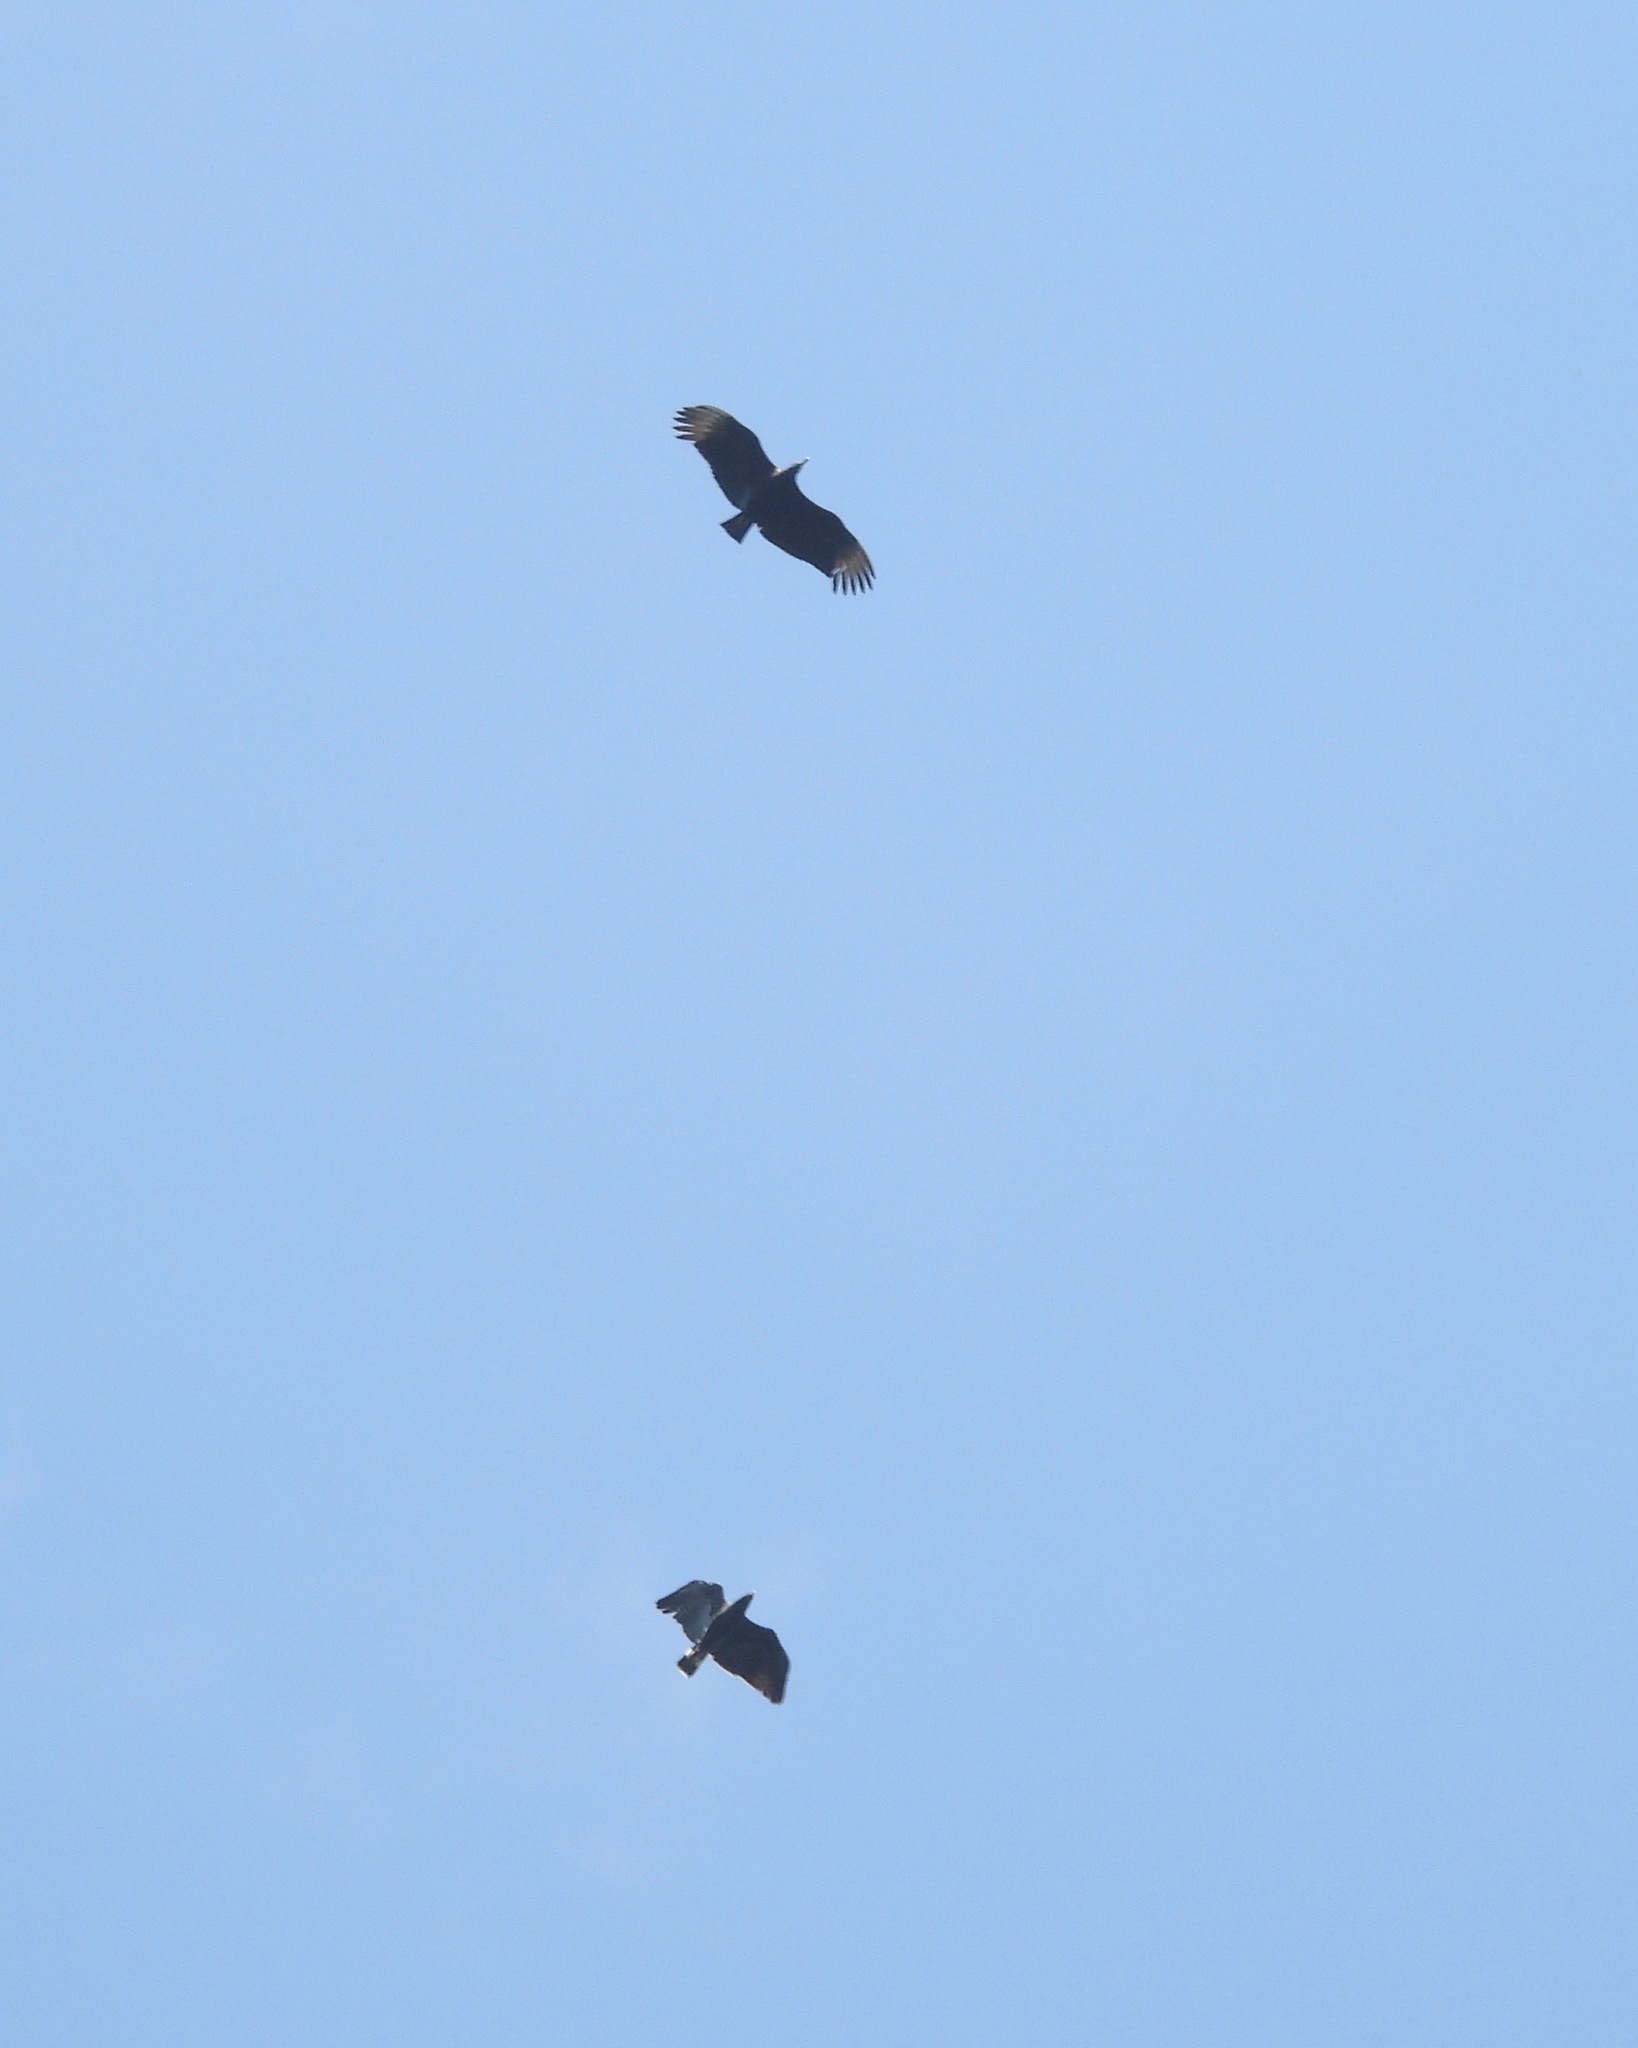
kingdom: Animalia
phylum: Chordata
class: Aves
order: Accipitriformes
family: Accipitridae
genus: Buteogallus
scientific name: Buteogallus anthracinus
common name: Common black hawk
